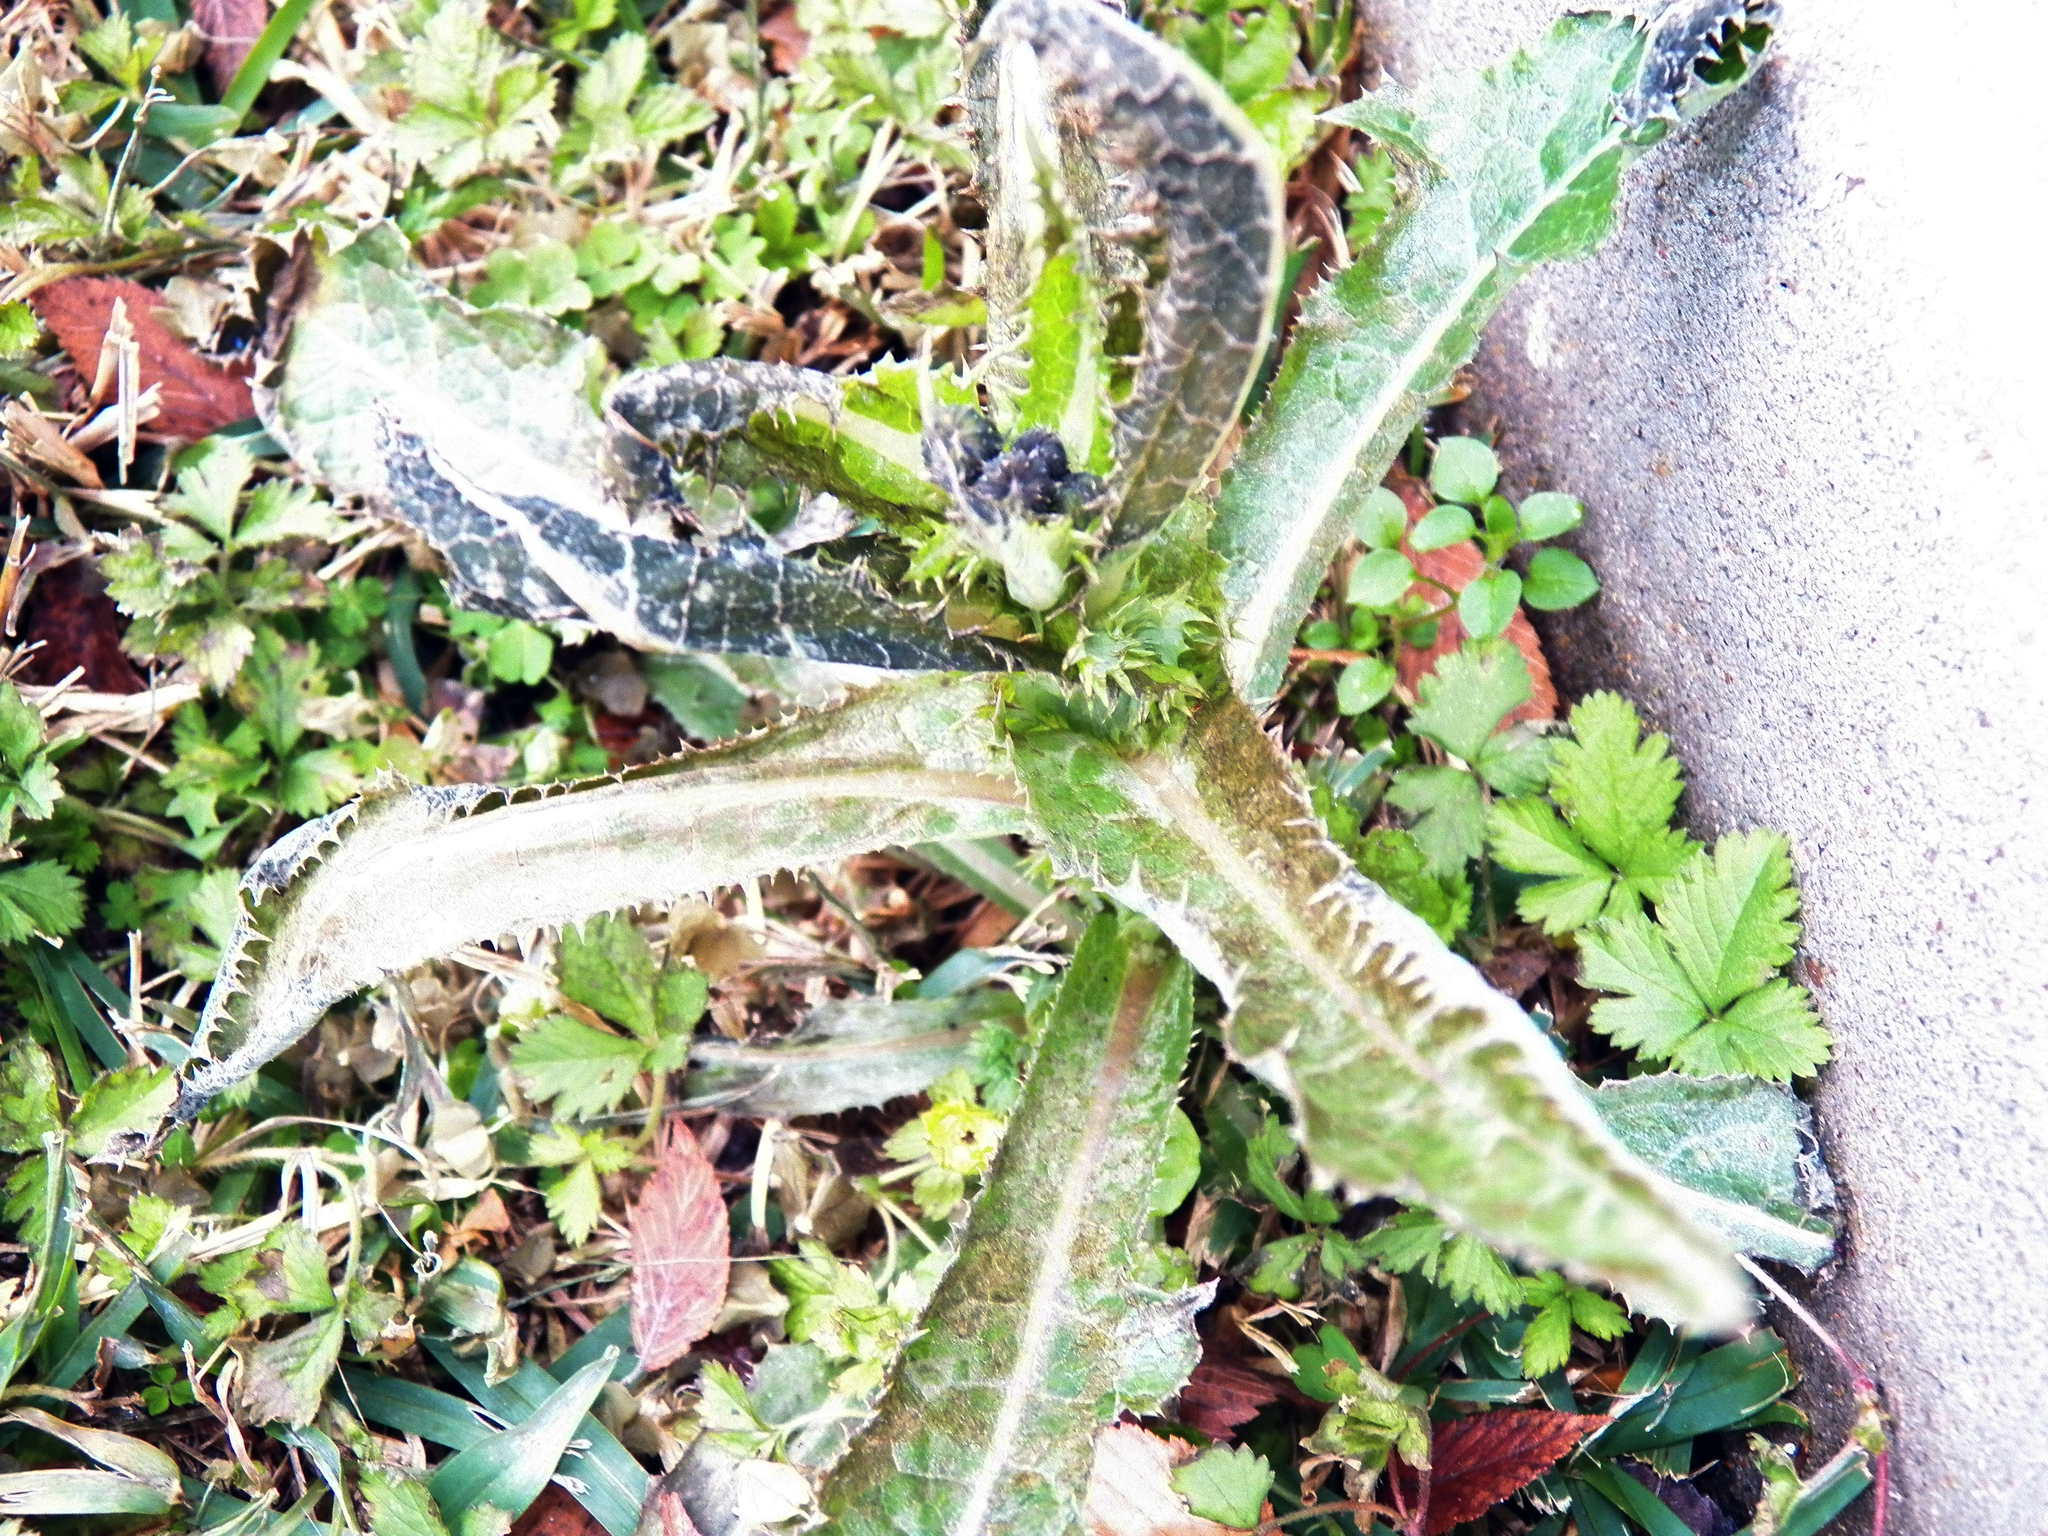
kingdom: Plantae
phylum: Tracheophyta
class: Magnoliopsida
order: Asterales
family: Asteraceae
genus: Sonchus
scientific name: Sonchus oleraceus
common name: Common sowthistle
